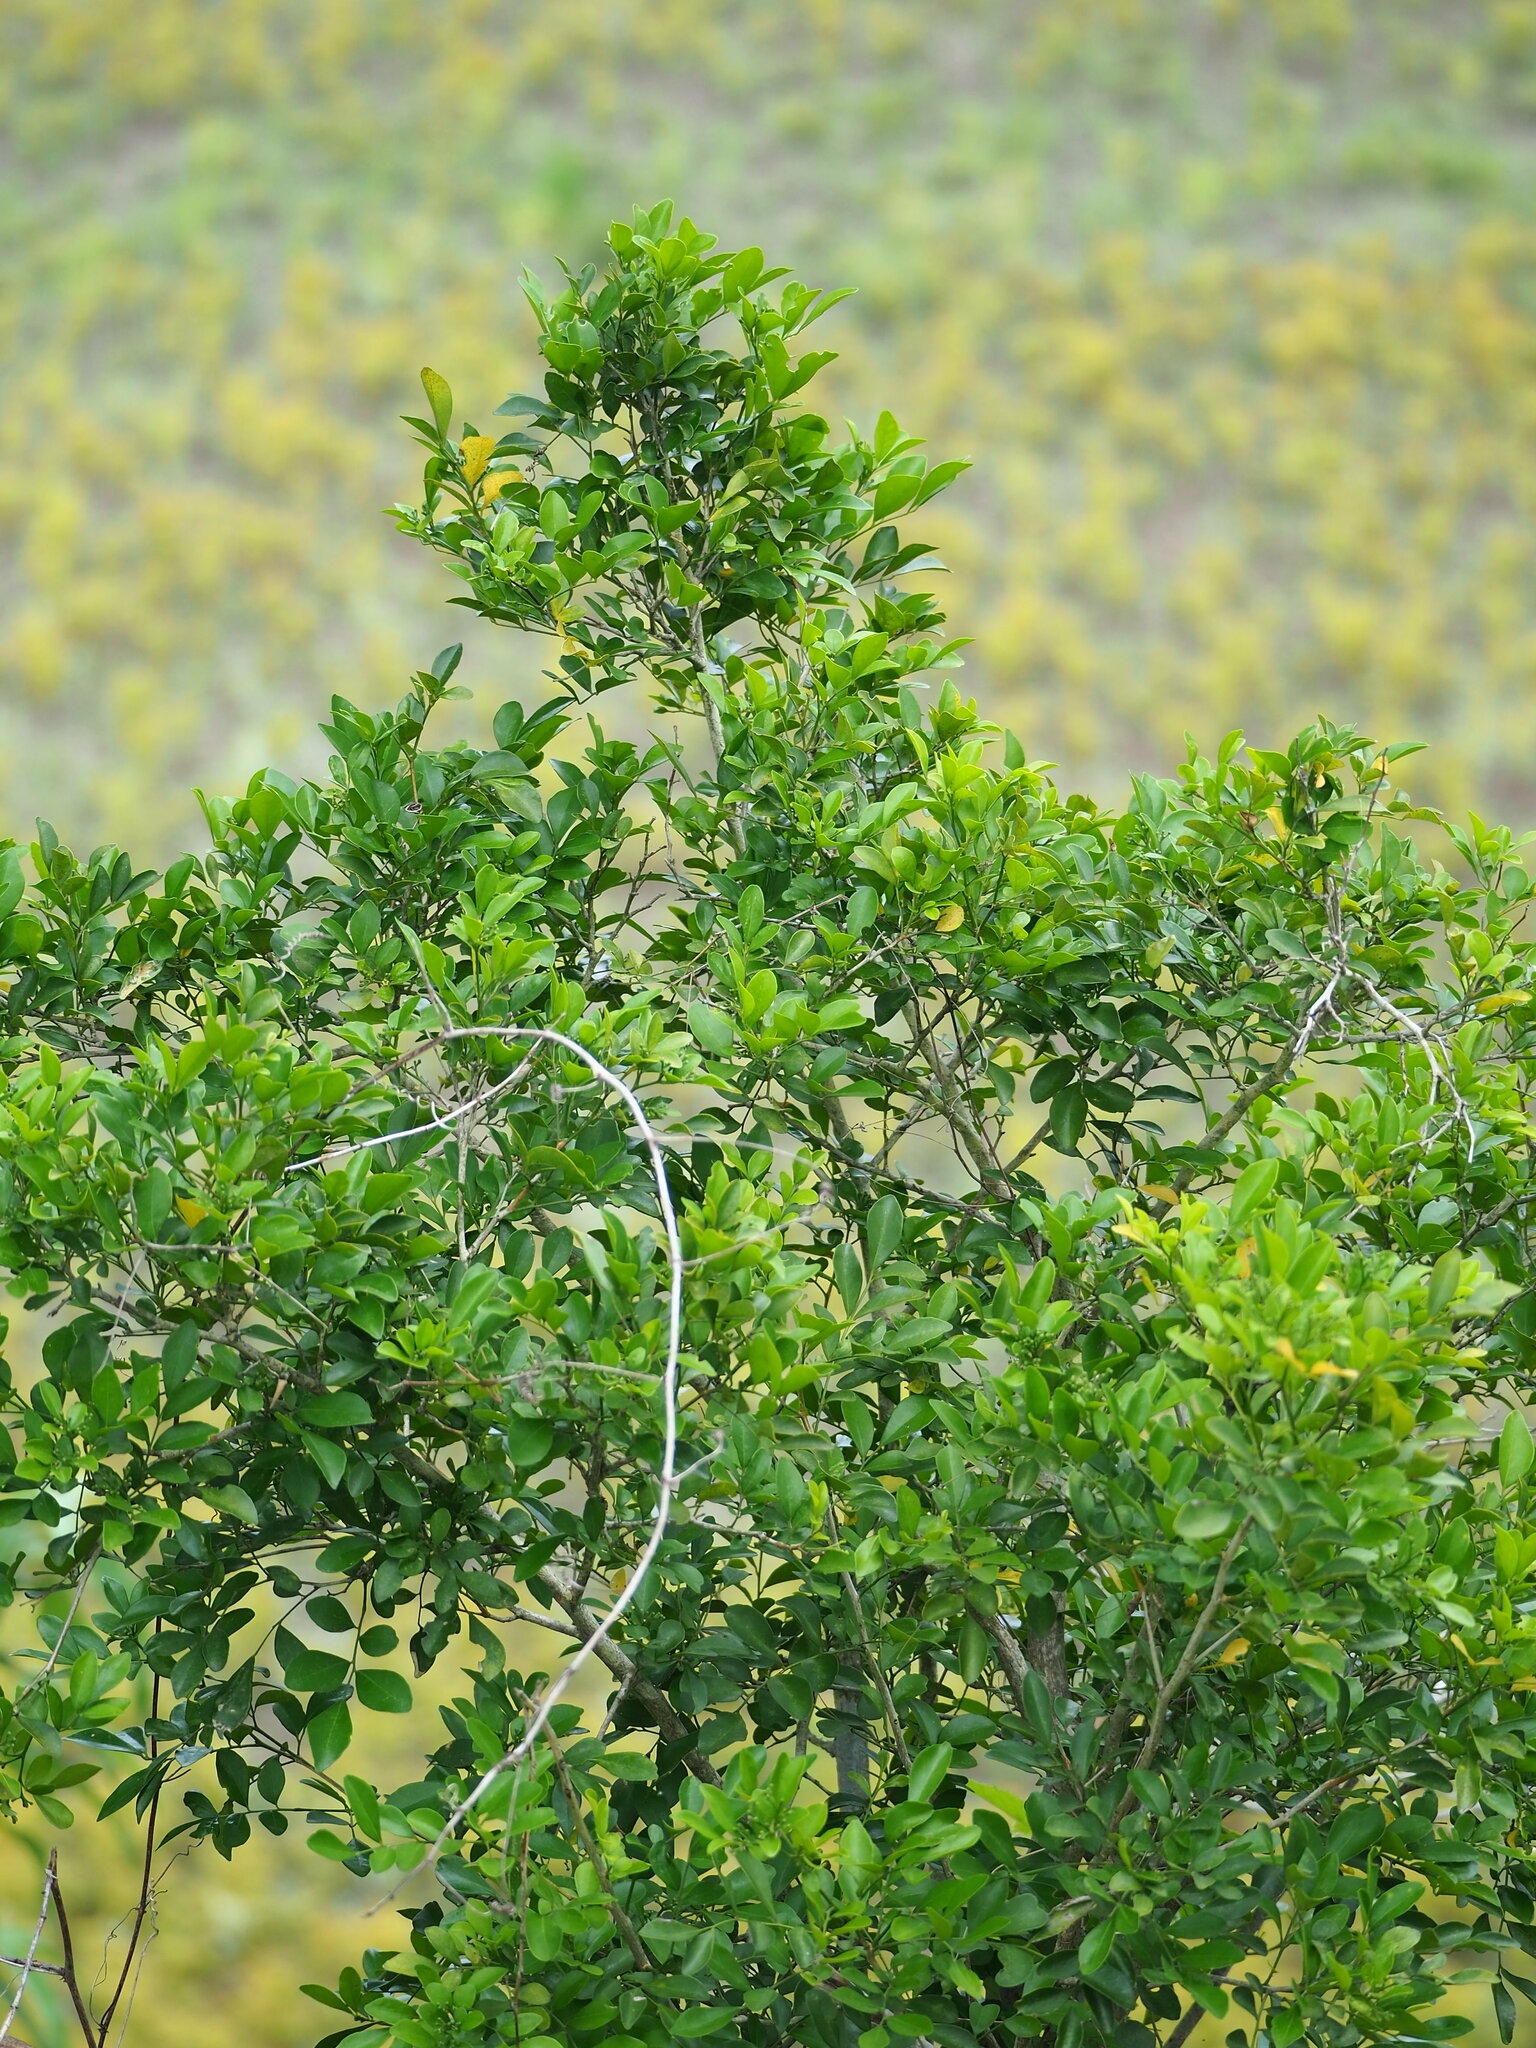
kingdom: Plantae
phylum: Tracheophyta
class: Magnoliopsida
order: Sapindales
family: Rutaceae
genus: Murraya
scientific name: Murraya paniculata
